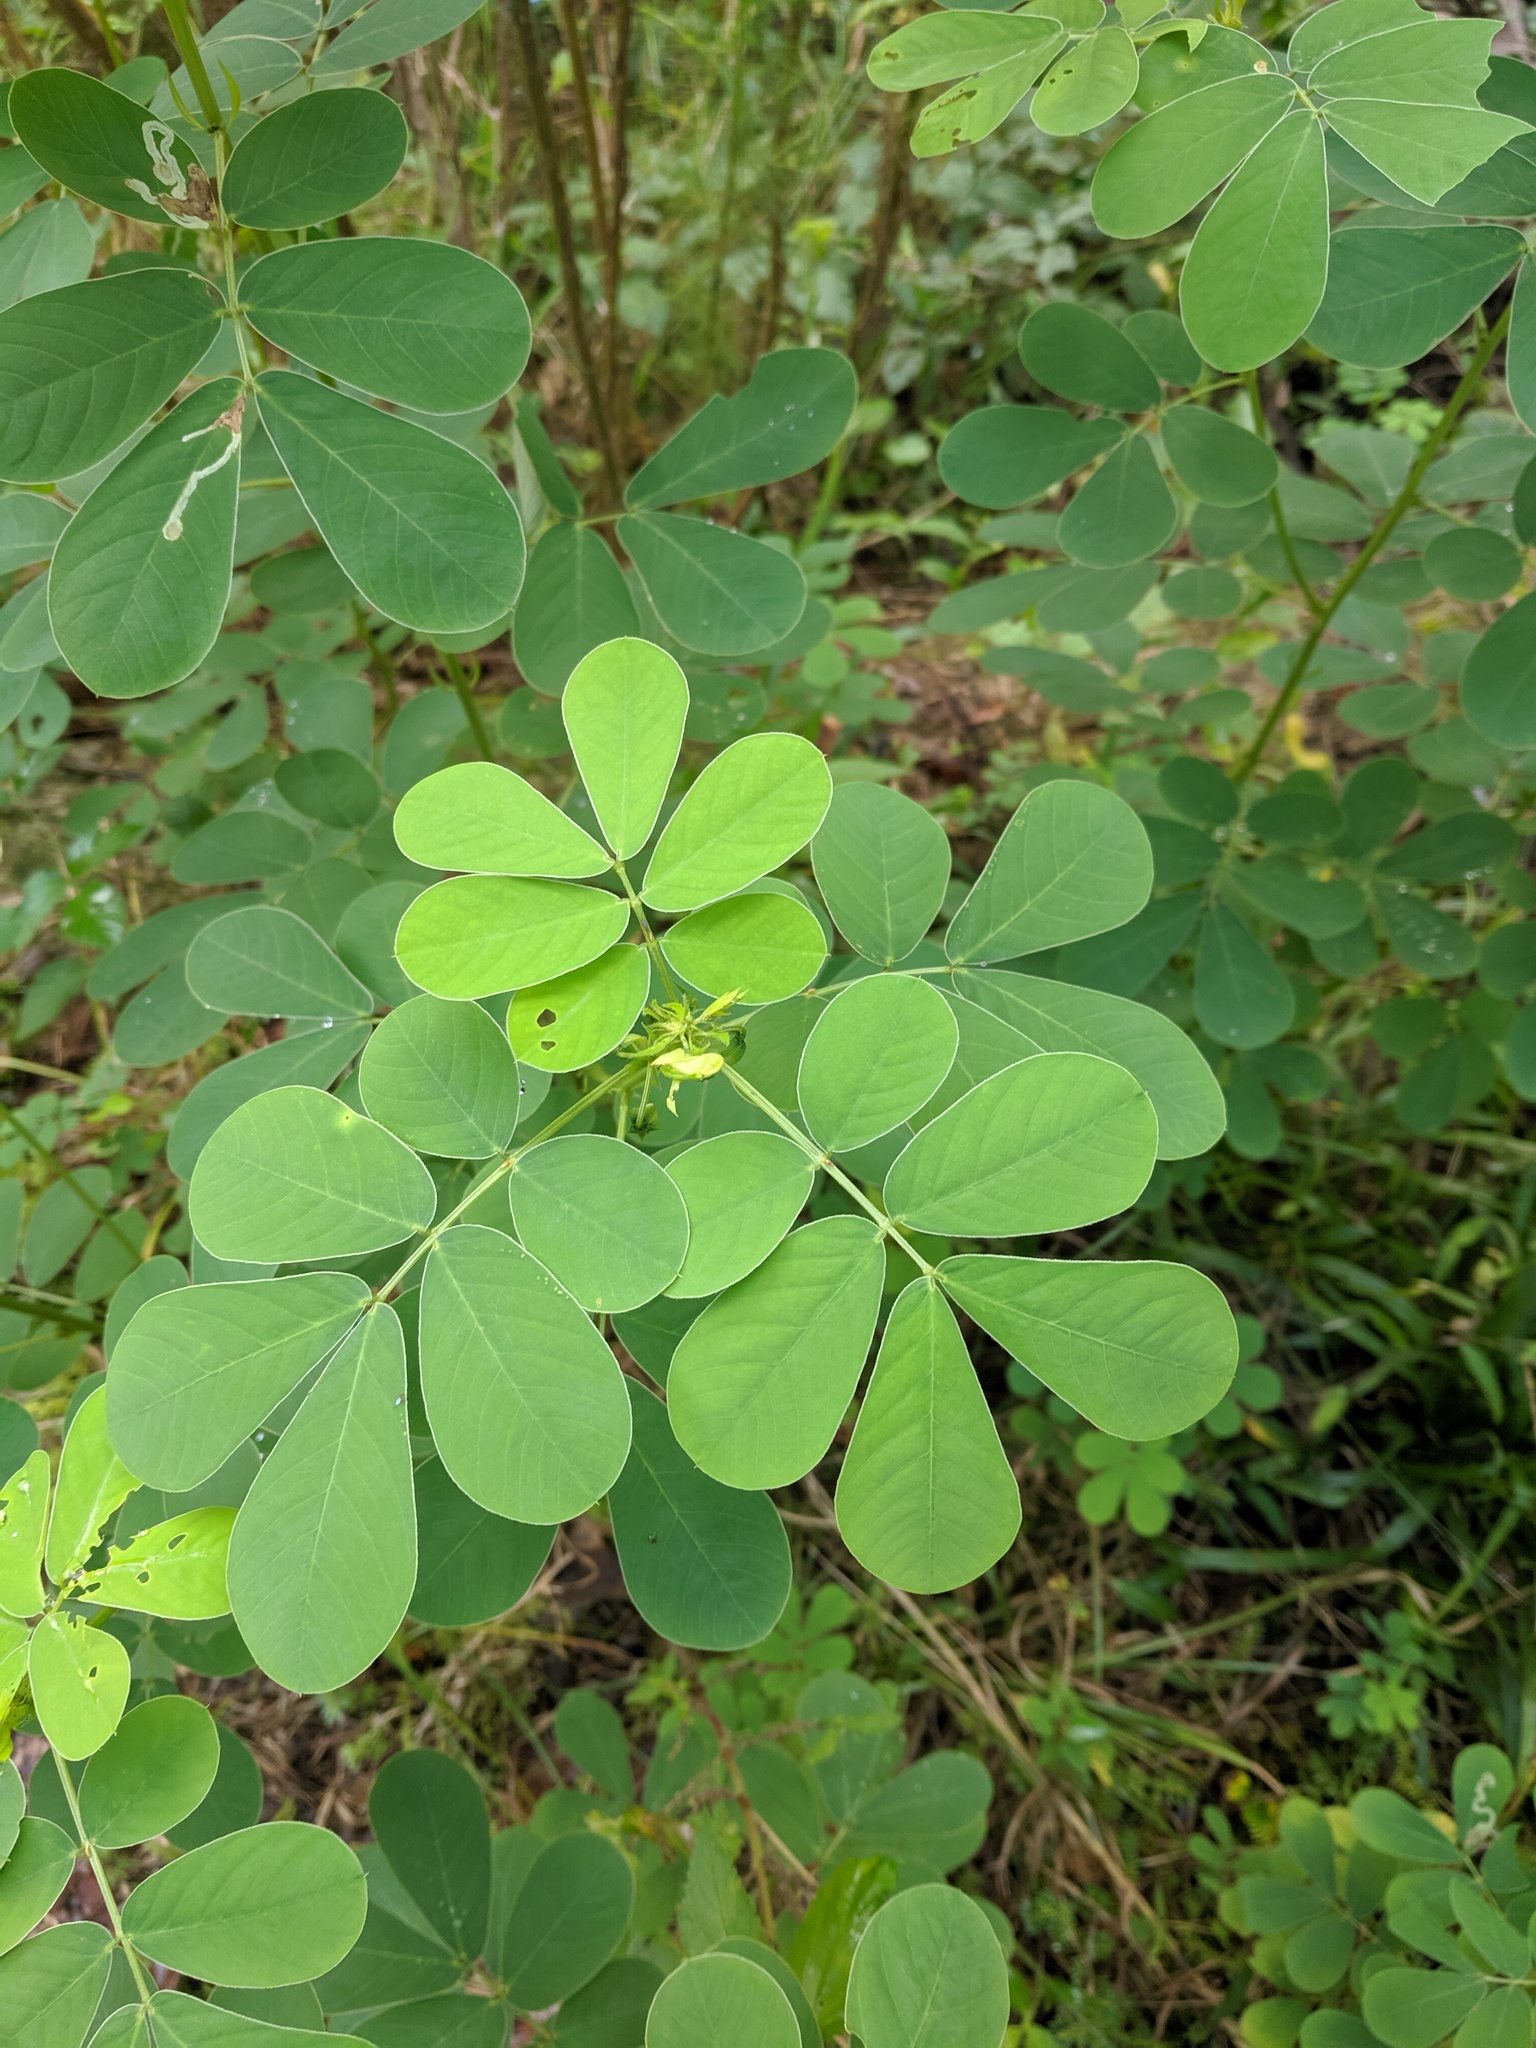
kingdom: Plantae
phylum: Tracheophyta
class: Magnoliopsida
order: Fabales
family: Fabaceae
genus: Senna
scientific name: Senna obtusifolia
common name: Java-bean
